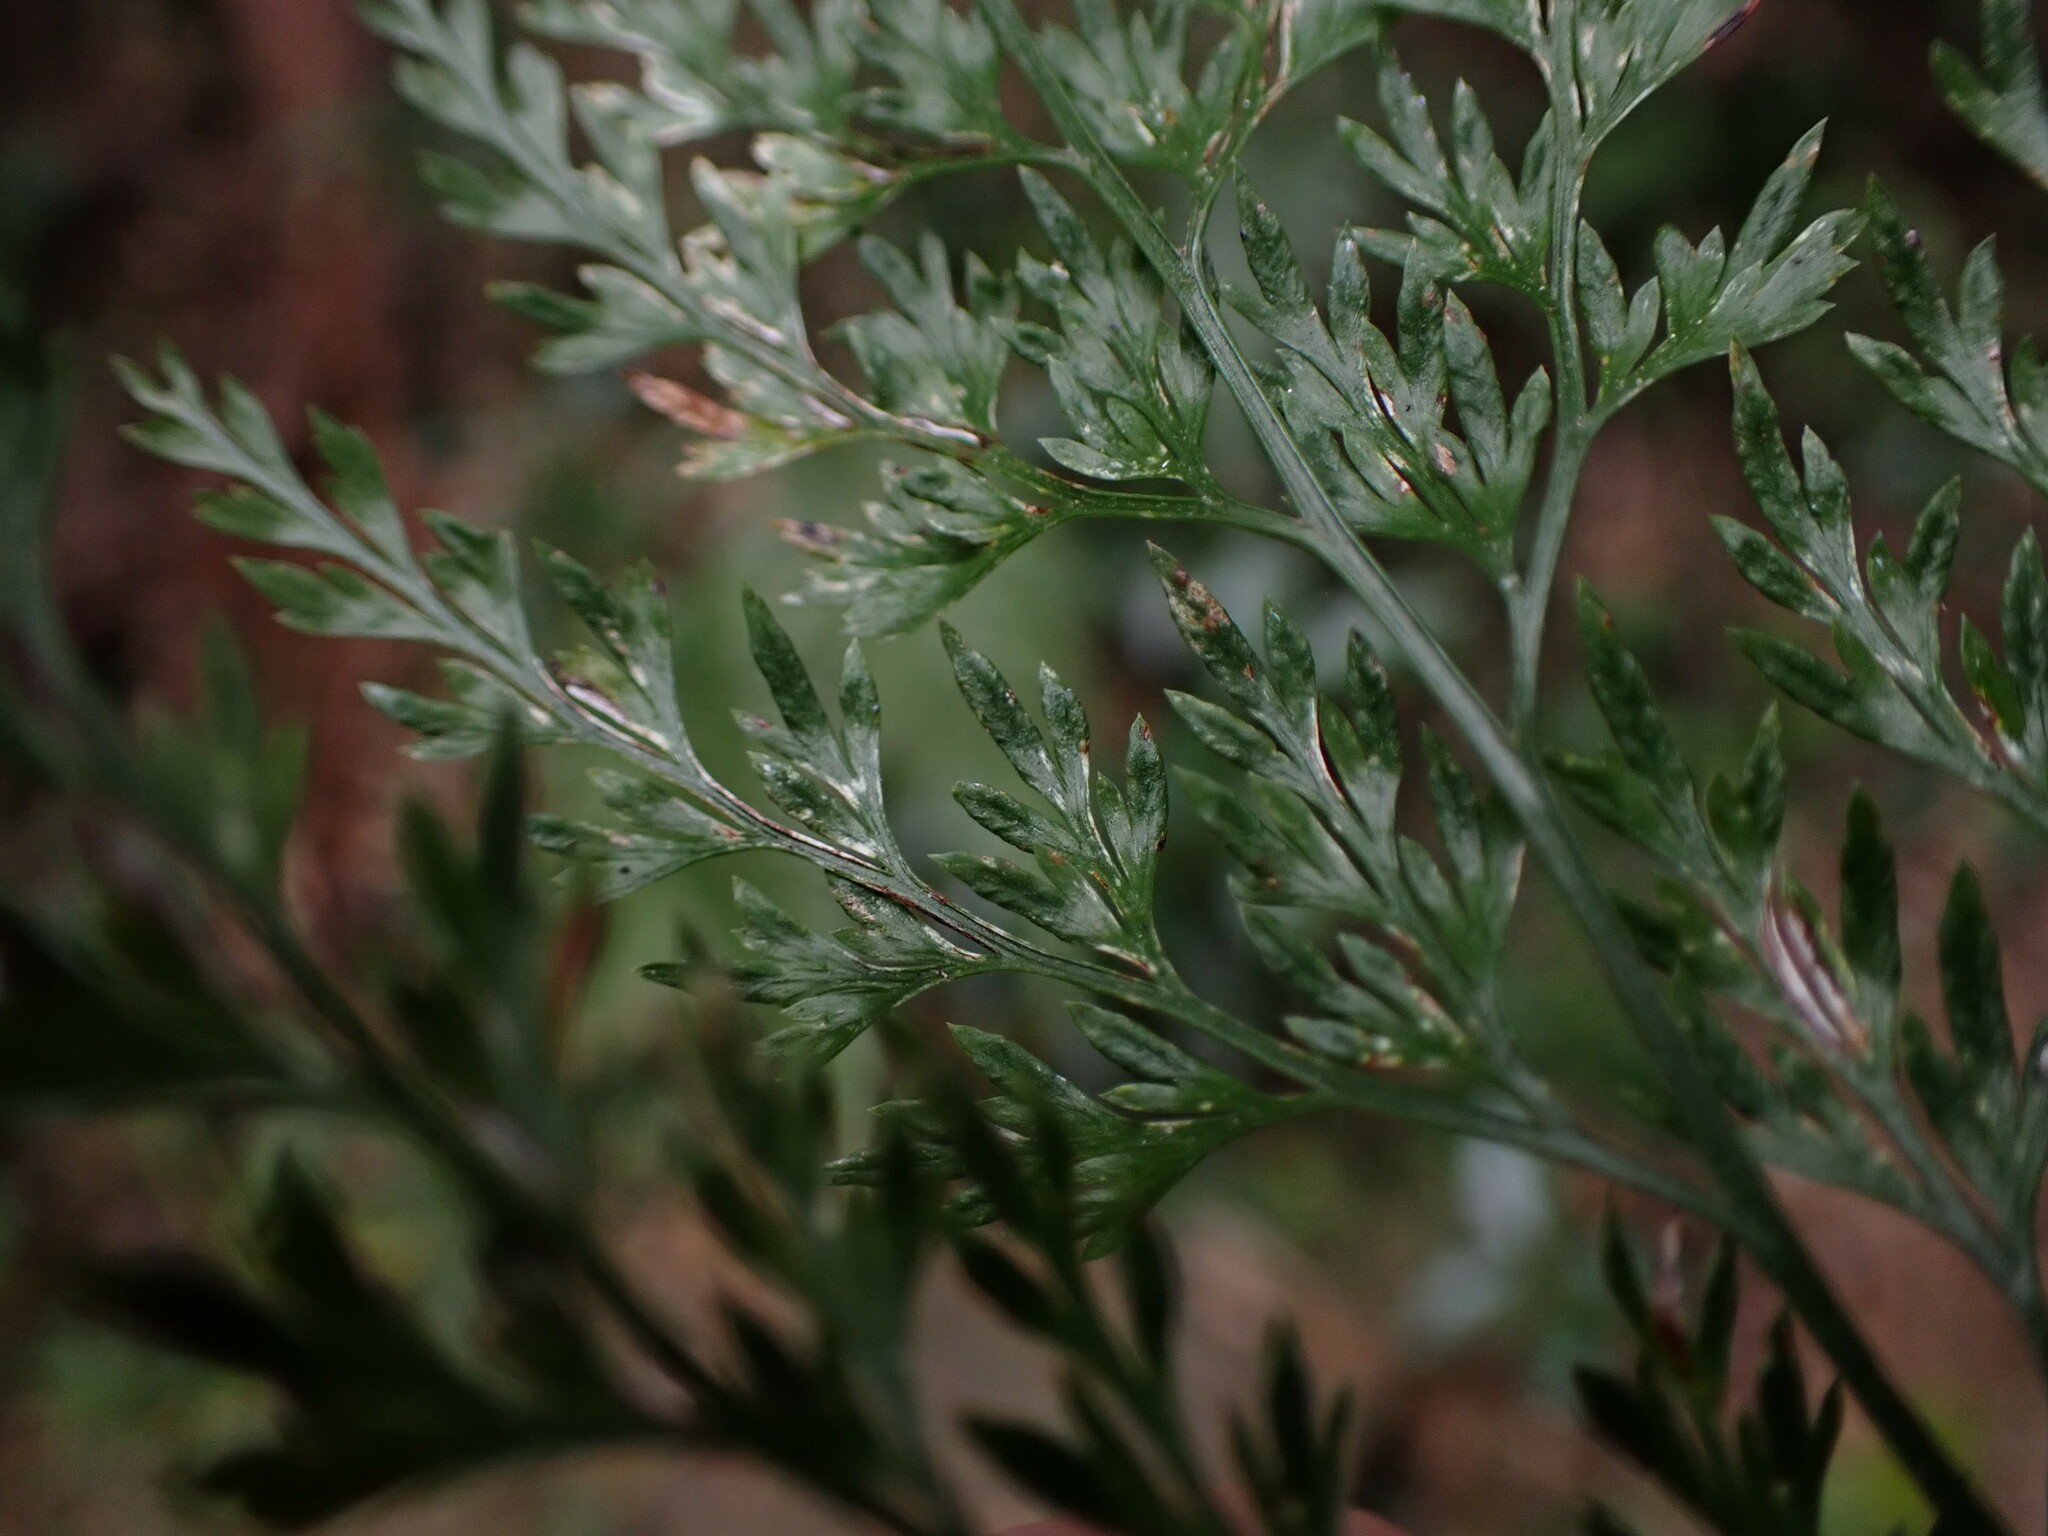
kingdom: Plantae
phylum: Tracheophyta
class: Polypodiopsida
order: Polypodiales
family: Pteridaceae
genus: Onychium
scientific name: Onychium japonicum
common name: Carrot fern
